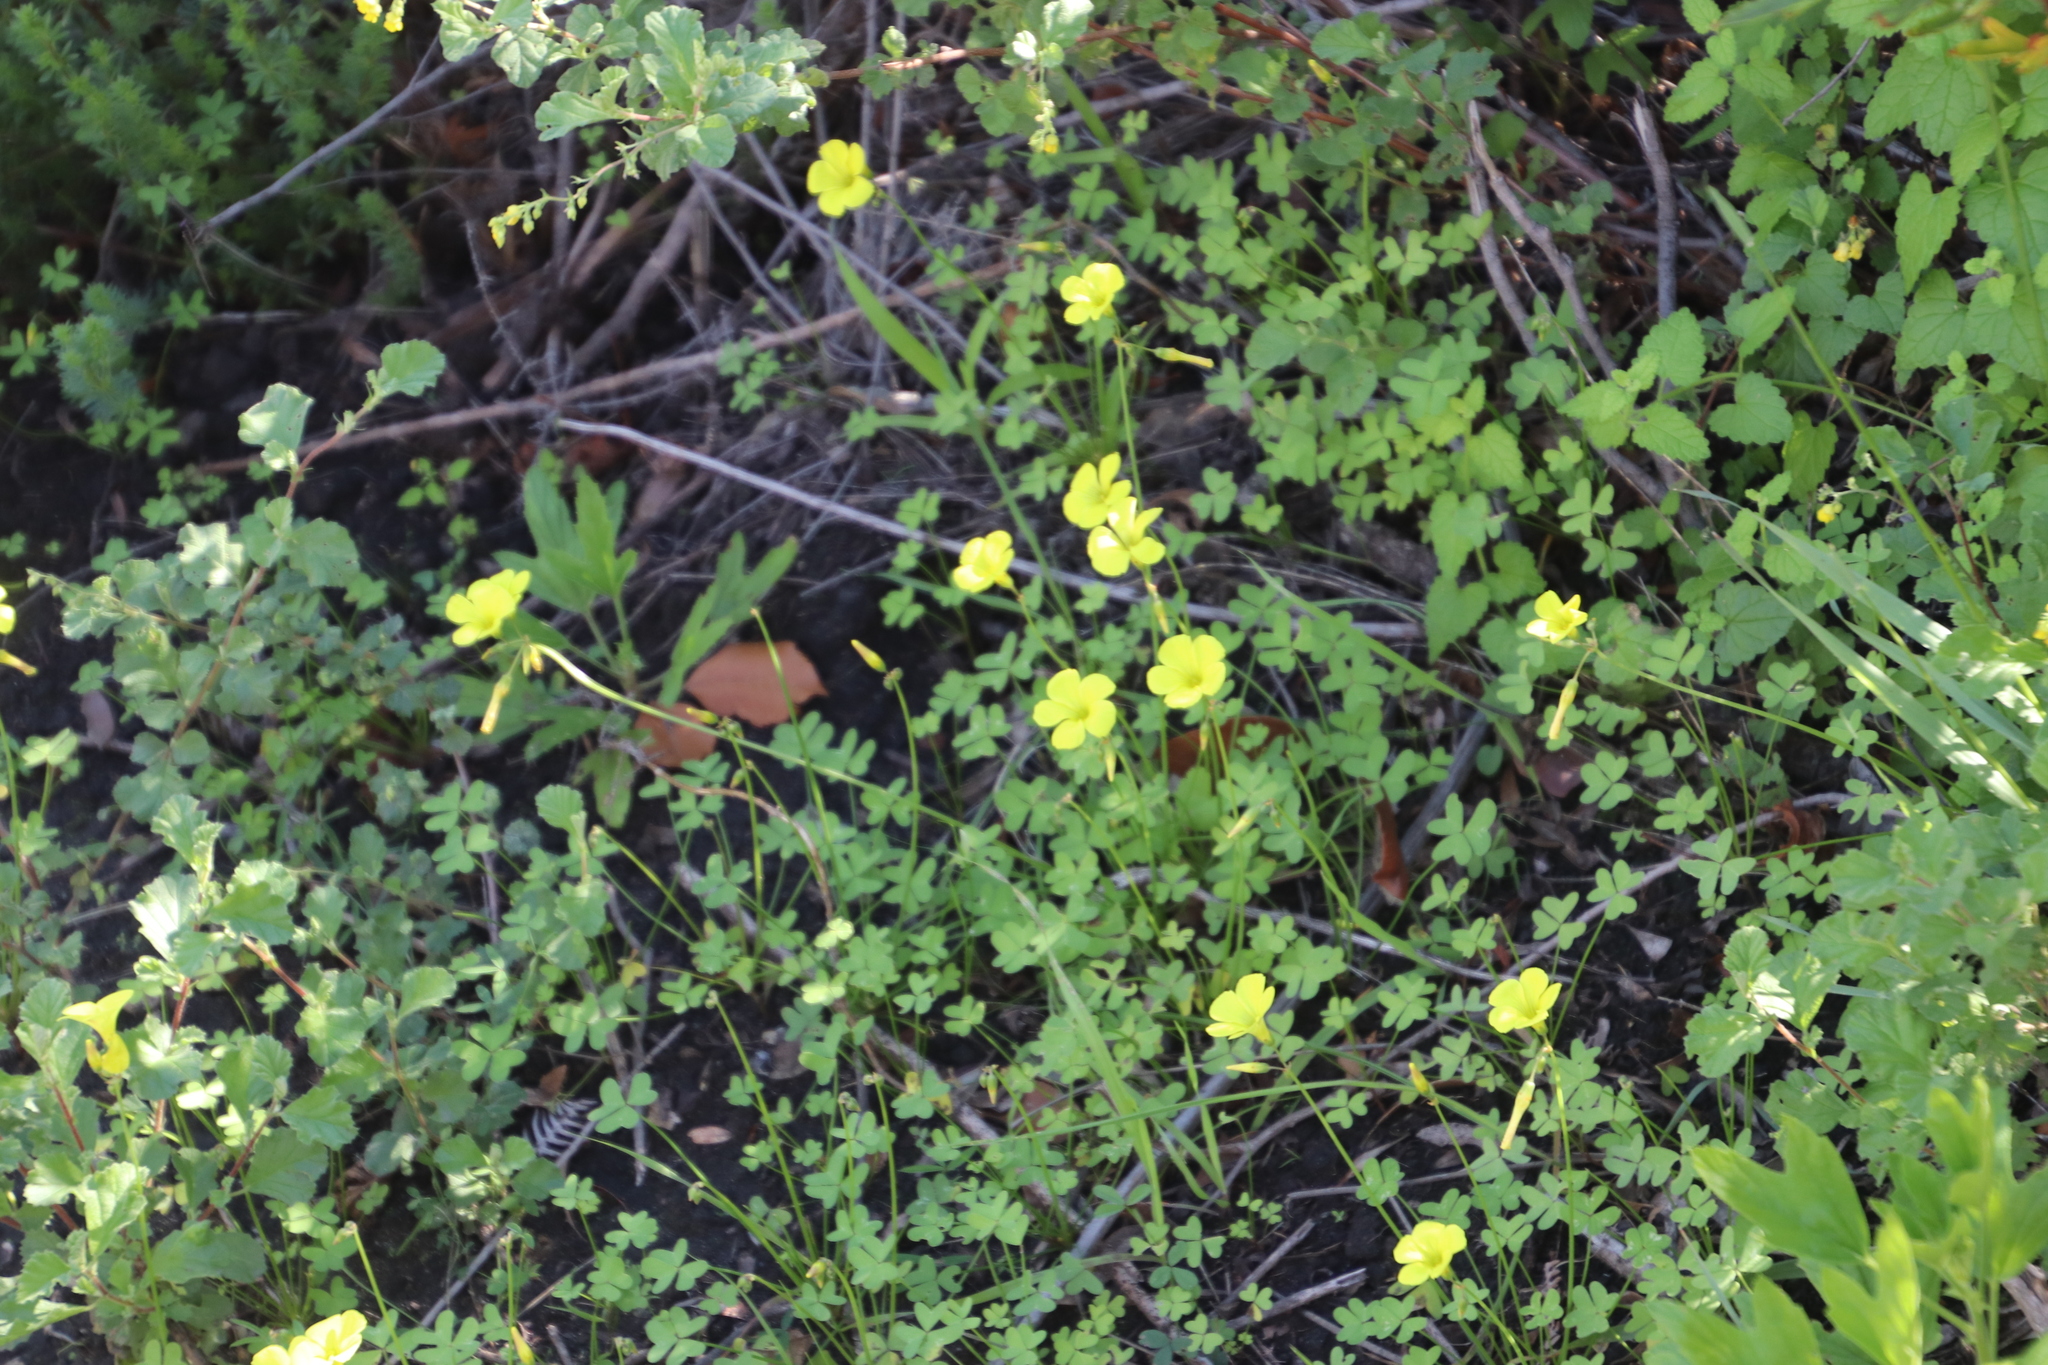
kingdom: Plantae
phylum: Tracheophyta
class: Magnoliopsida
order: Oxalidales
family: Oxalidaceae
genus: Oxalis
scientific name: Oxalis pes-caprae
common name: Bermuda-buttercup
